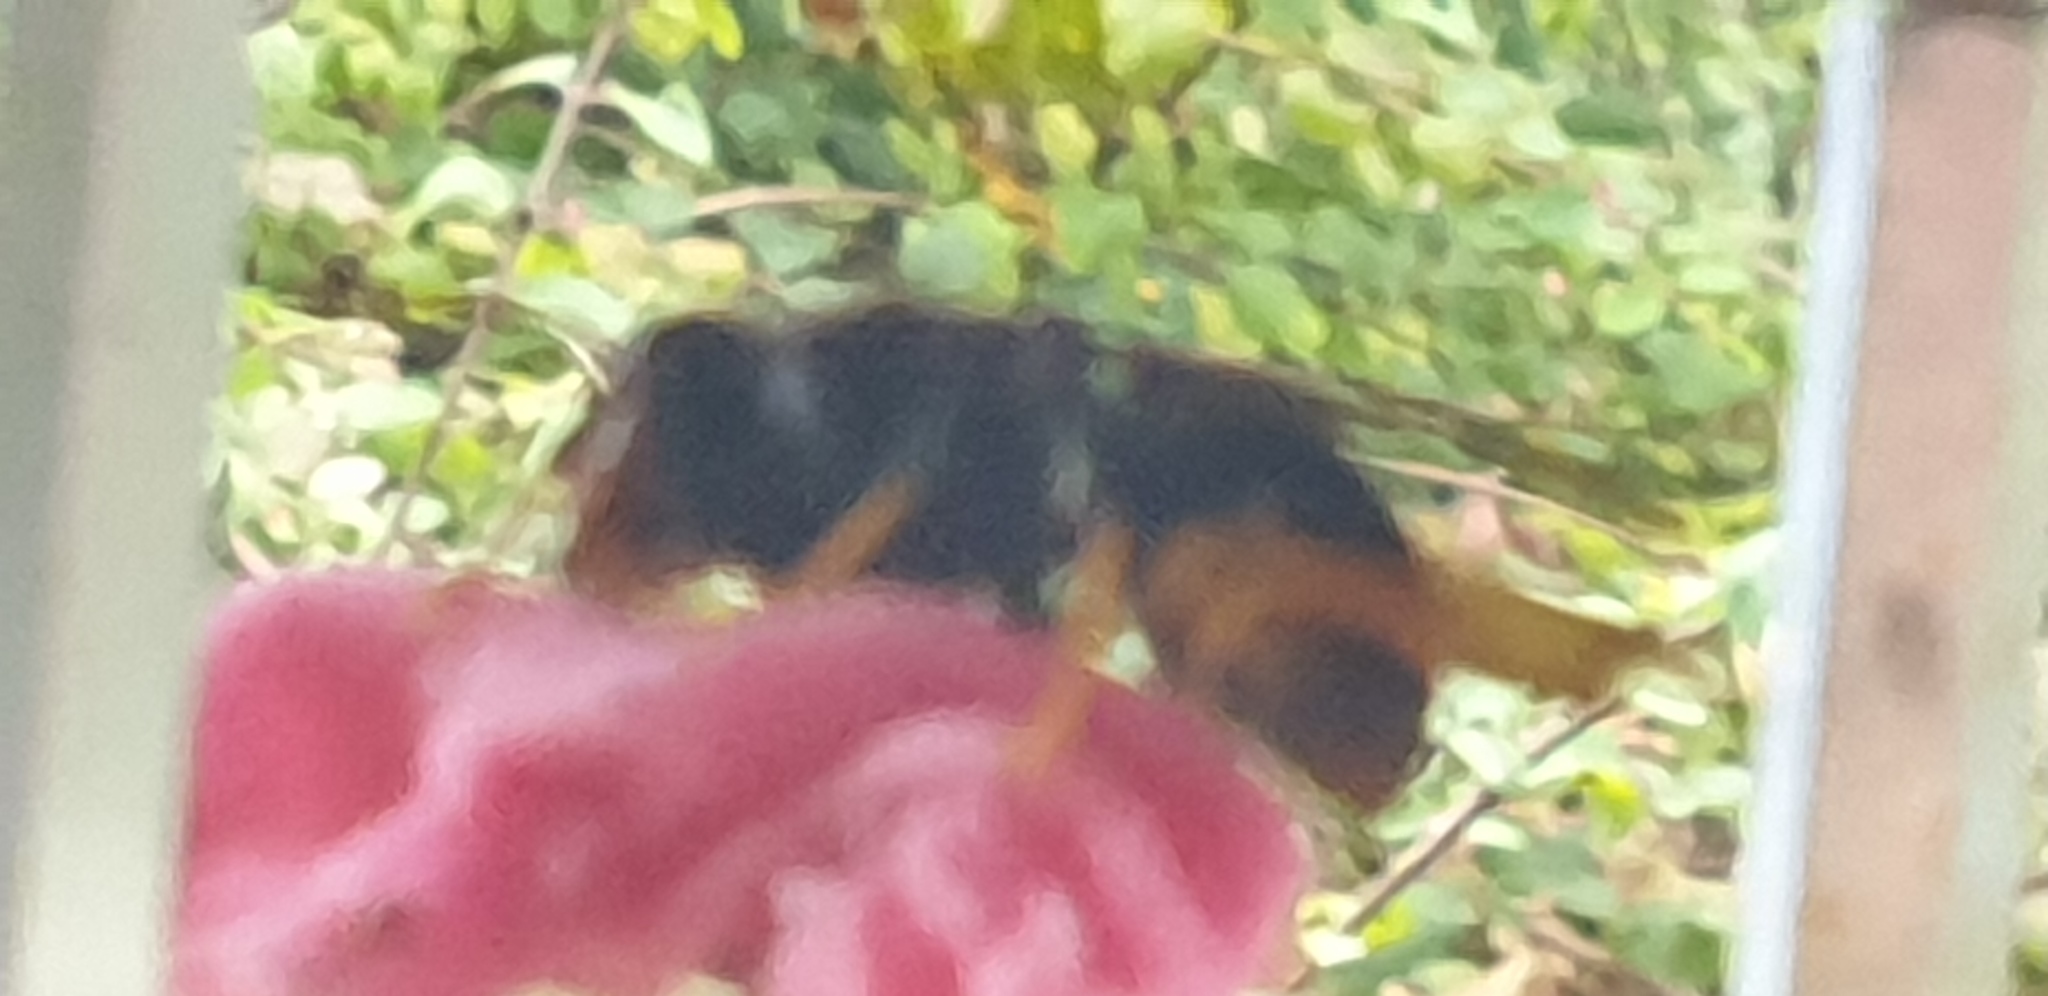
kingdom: Animalia
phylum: Arthropoda
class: Insecta
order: Hymenoptera
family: Vespidae
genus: Vespa
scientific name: Vespa velutina
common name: Asian hornet
